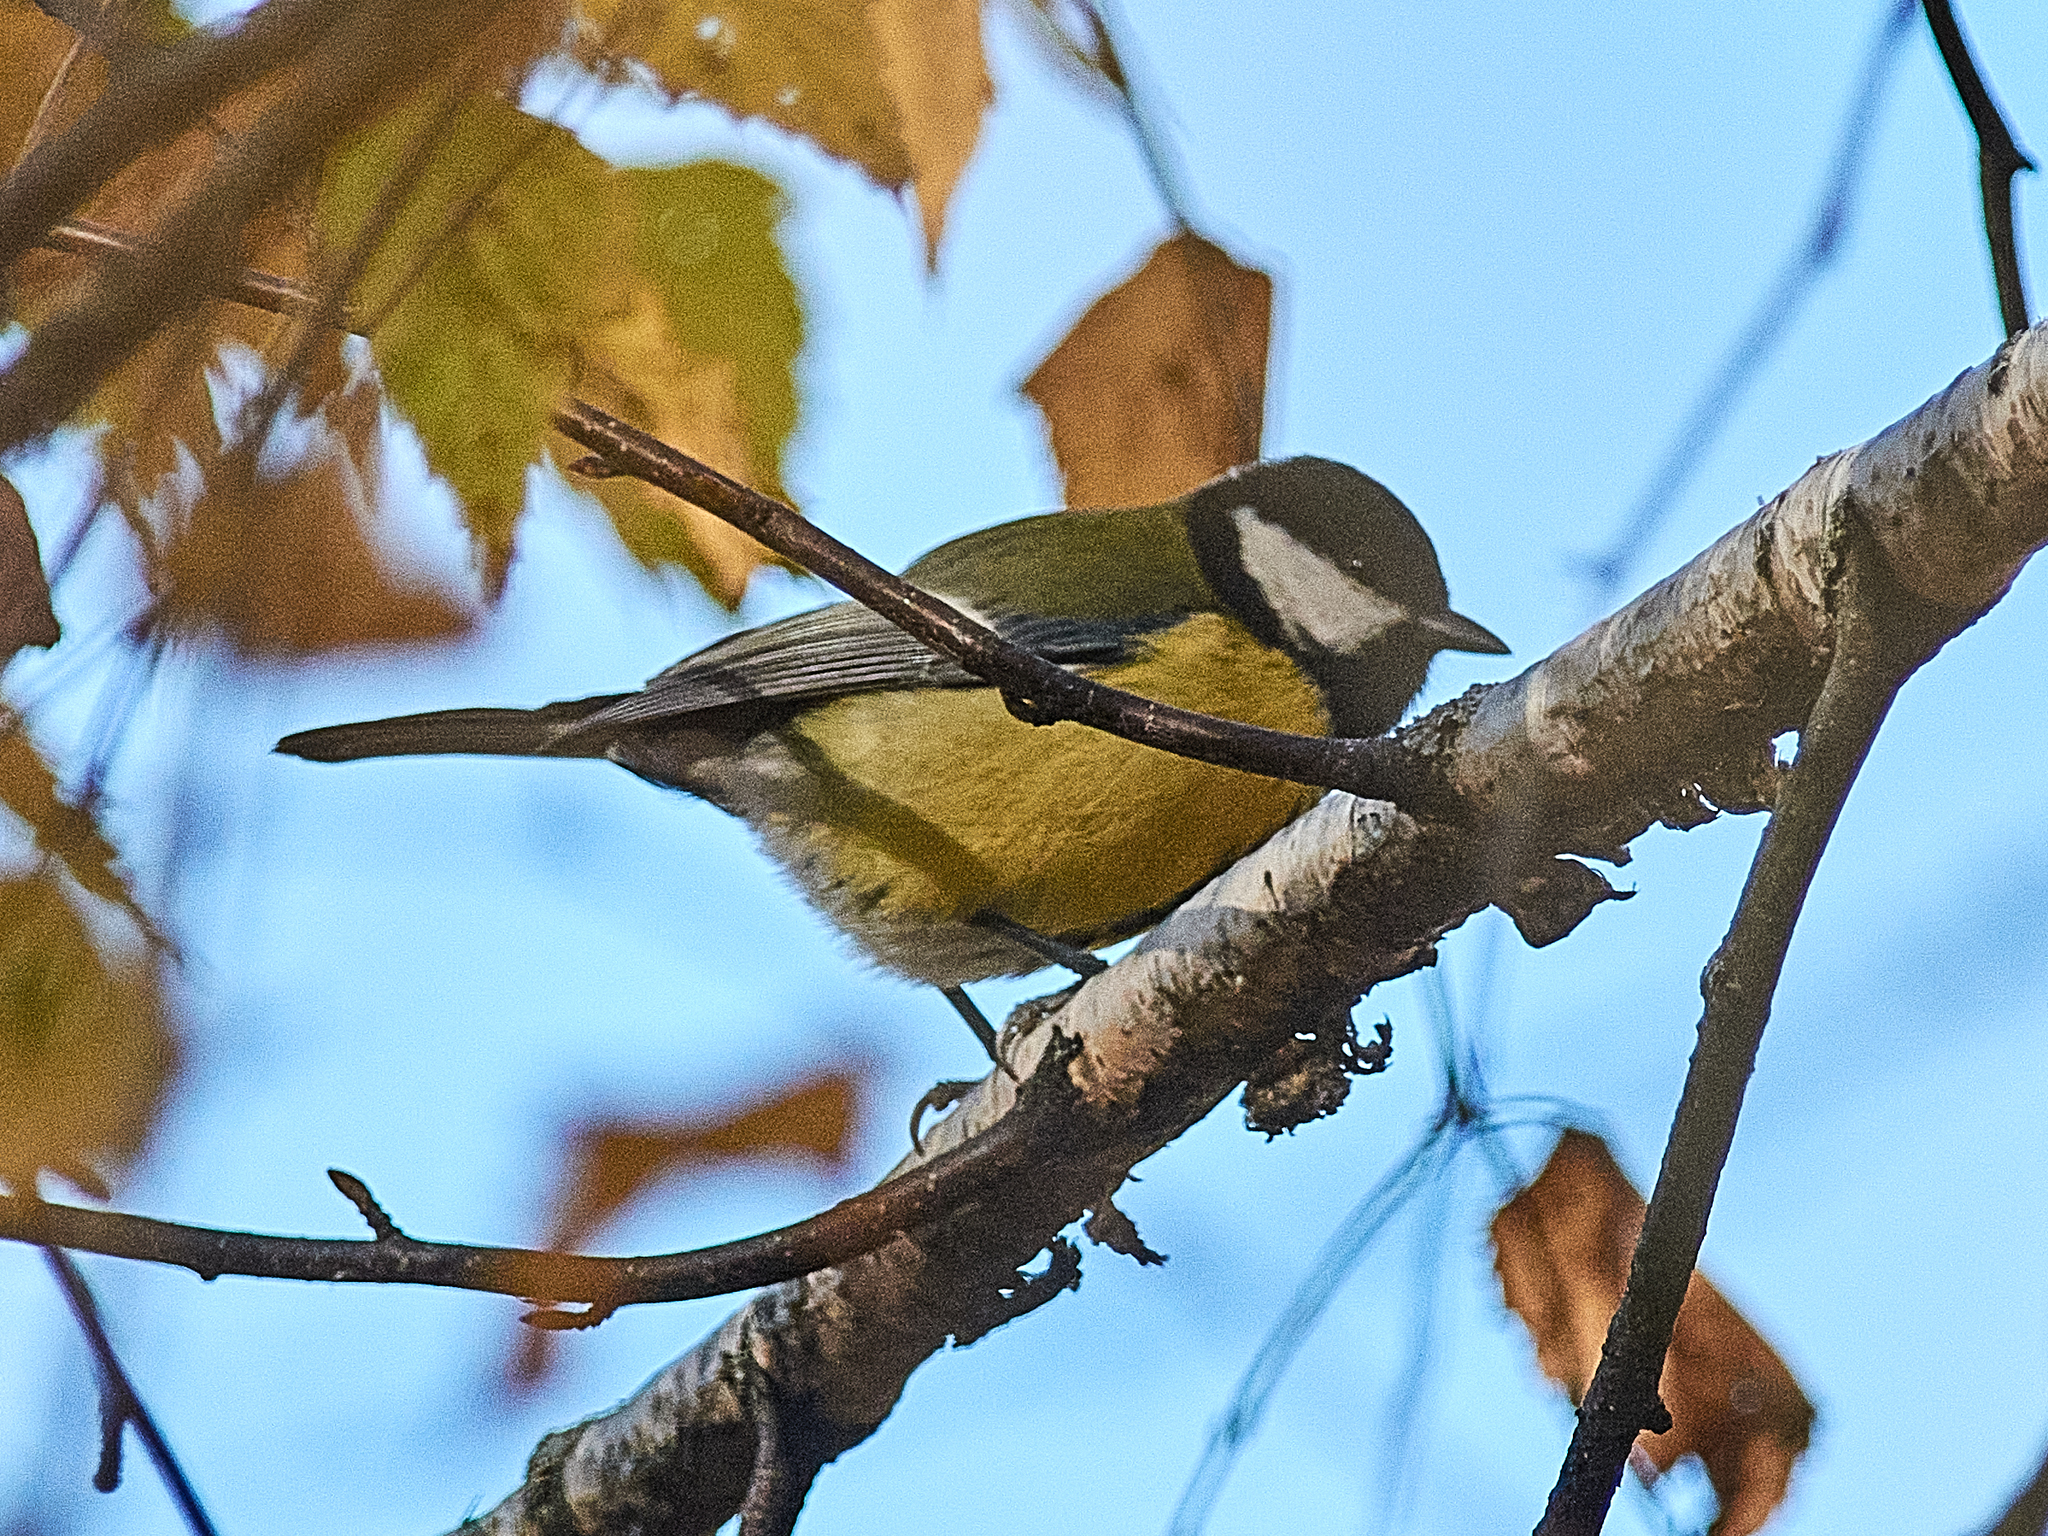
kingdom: Animalia
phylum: Chordata
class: Aves
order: Passeriformes
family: Paridae
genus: Parus
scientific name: Parus major
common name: Great tit
